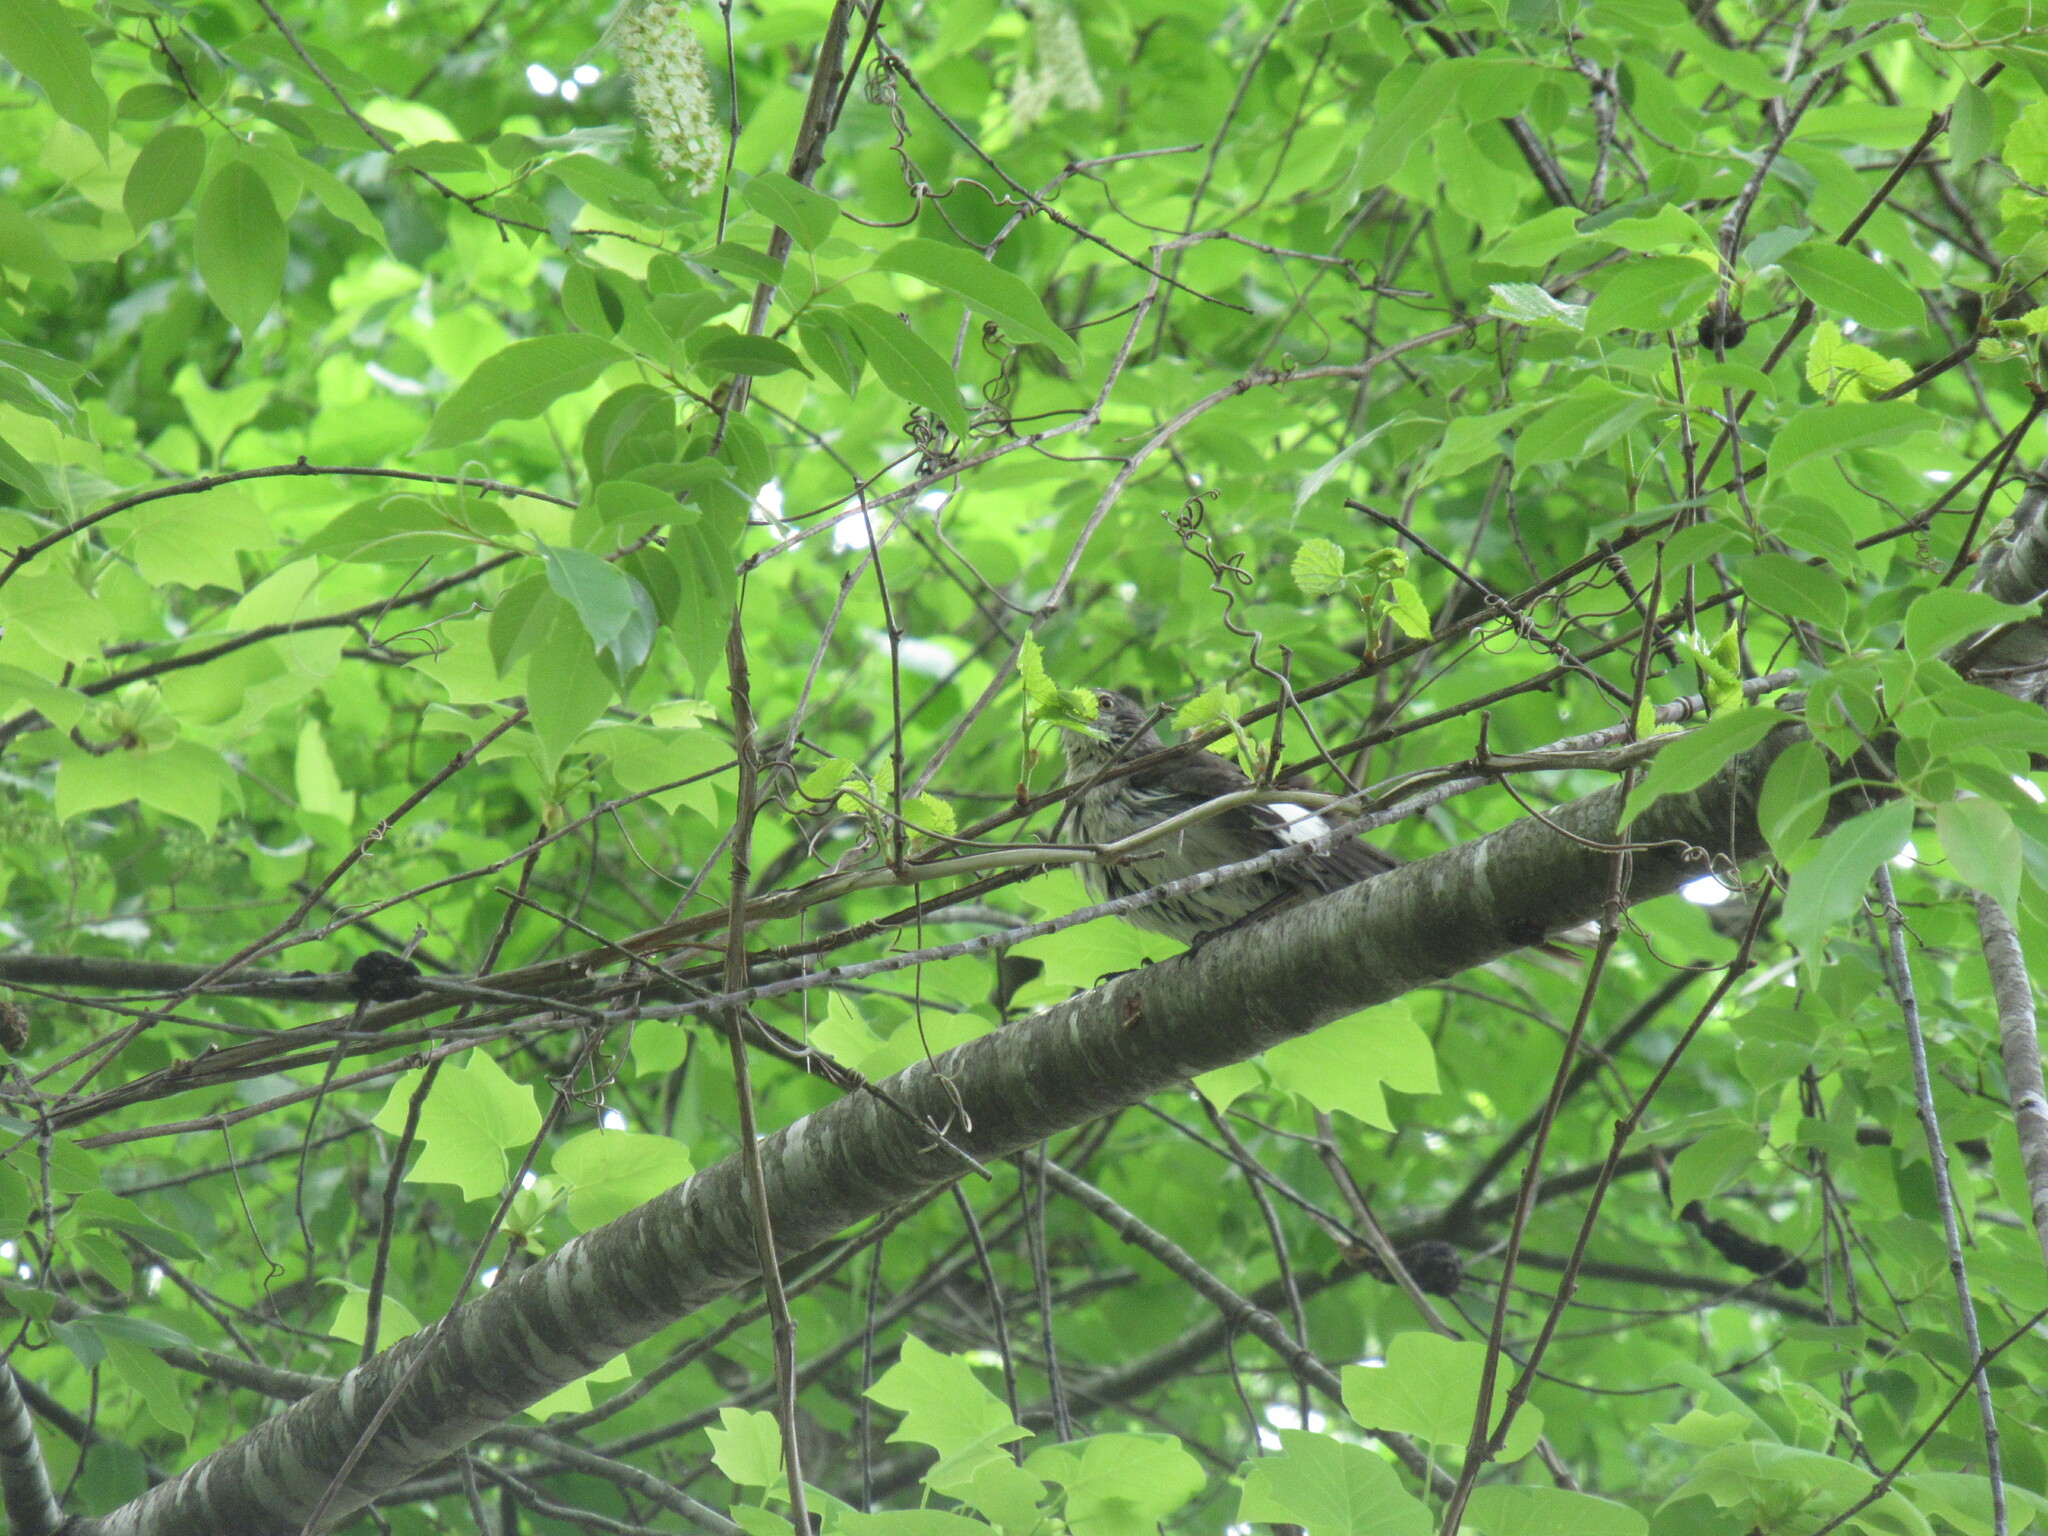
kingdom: Animalia
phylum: Chordata
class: Aves
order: Passeriformes
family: Mimidae
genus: Mimus
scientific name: Mimus polyglottos
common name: Northern mockingbird
